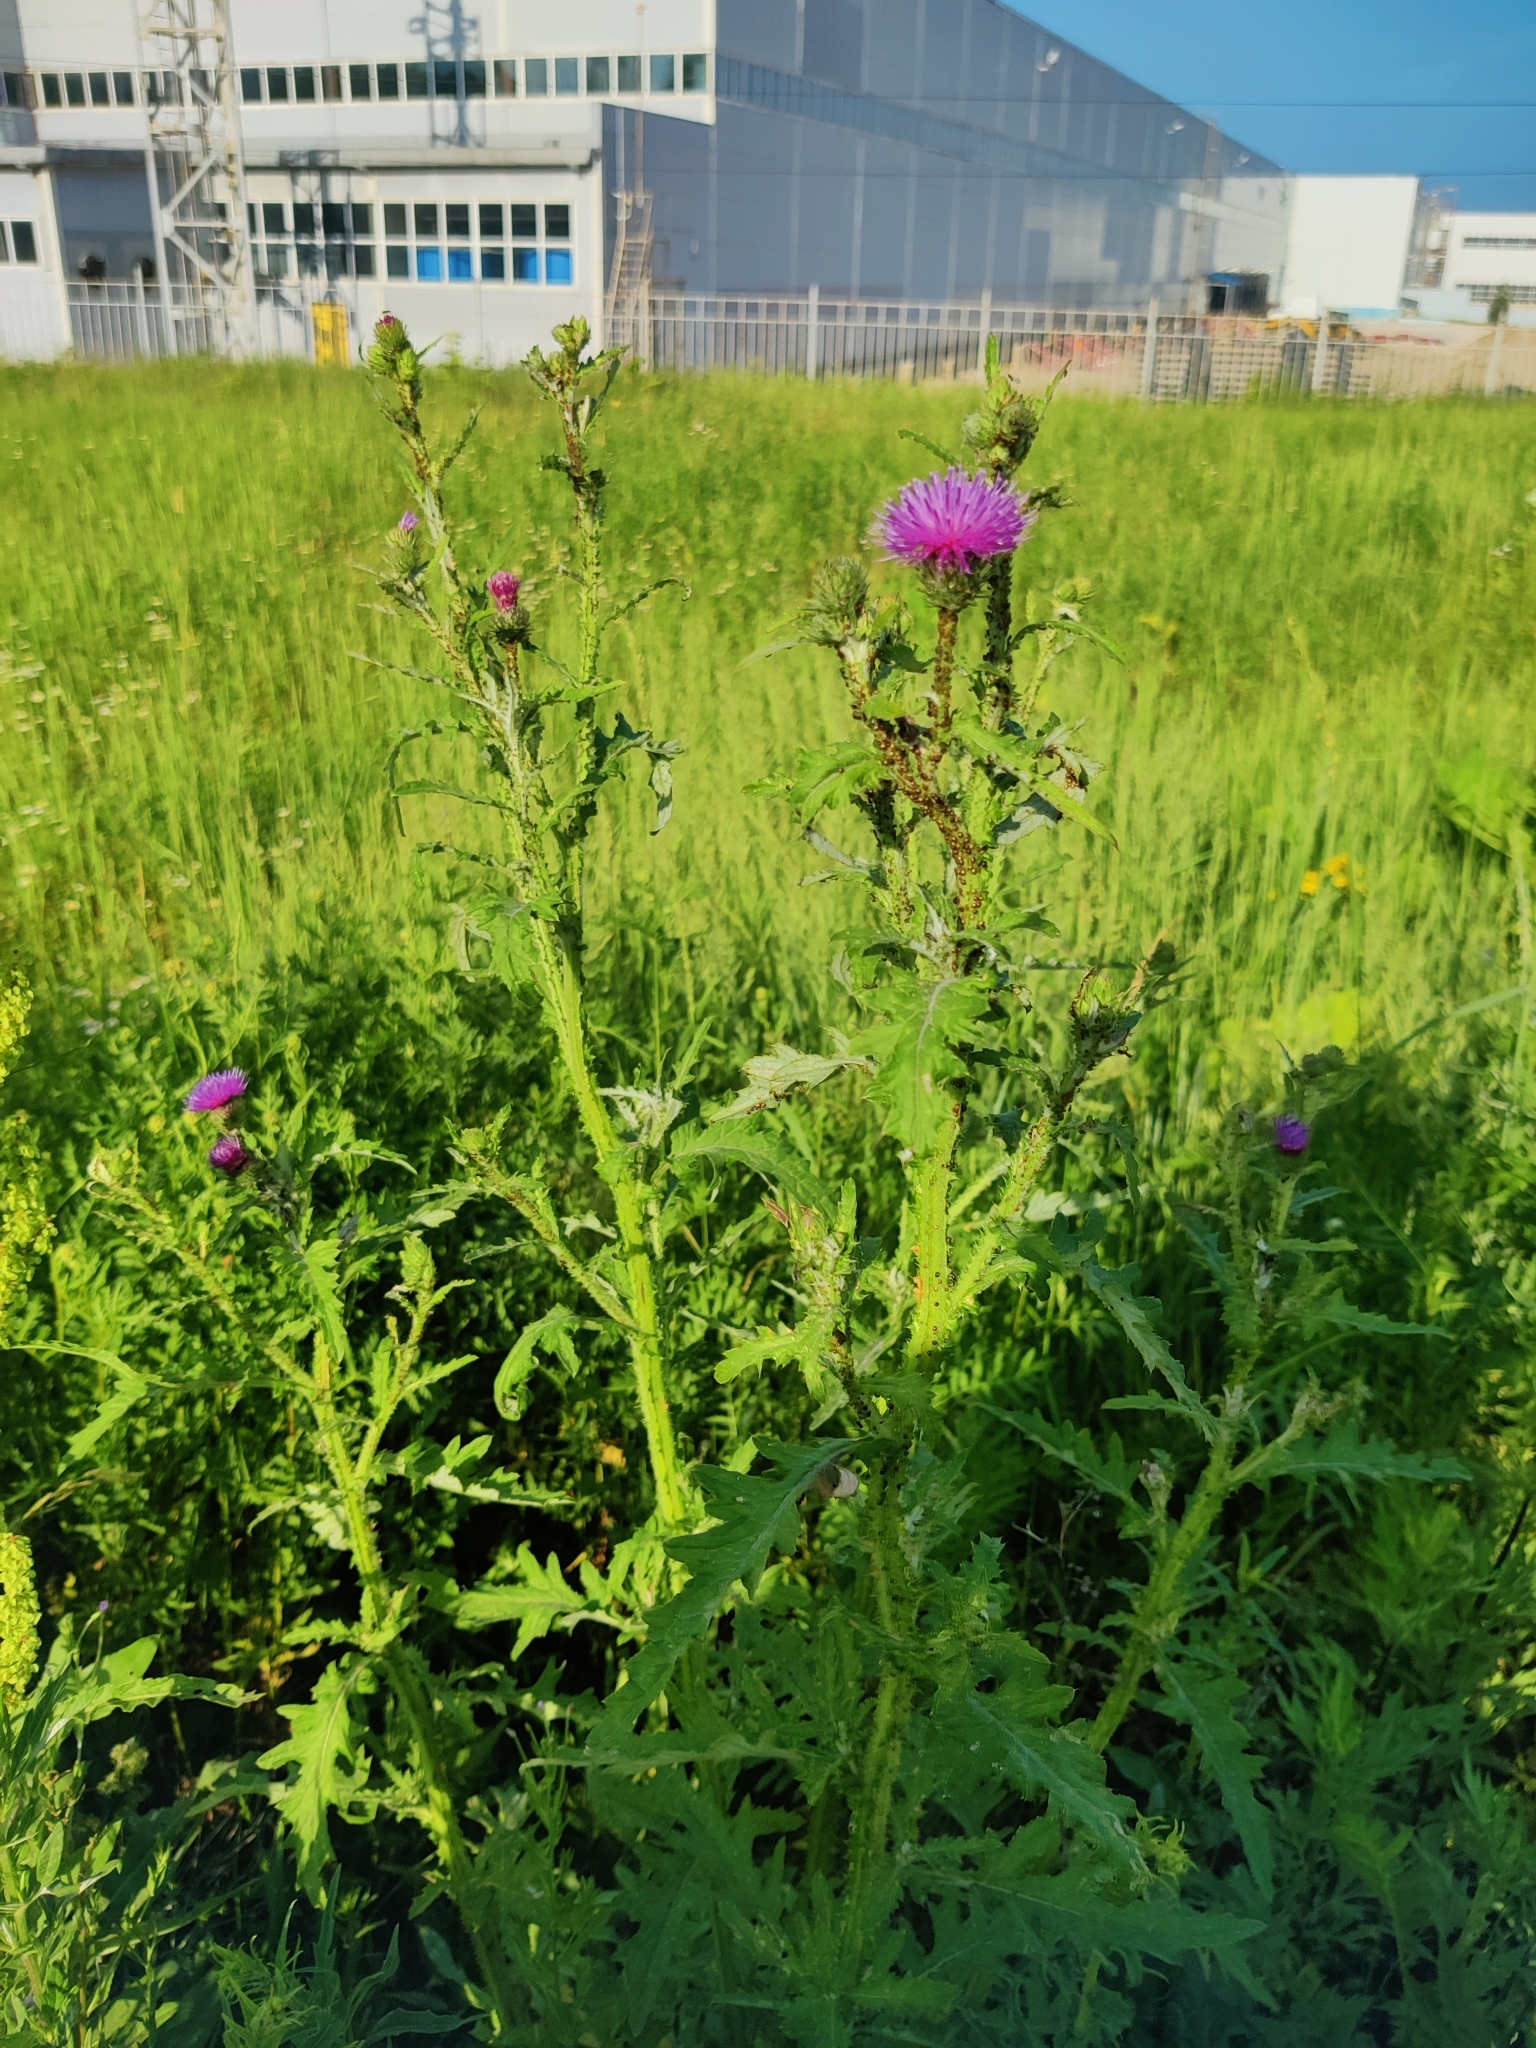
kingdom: Plantae
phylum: Tracheophyta
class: Magnoliopsida
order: Asterales
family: Asteraceae
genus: Carduus
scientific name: Carduus crispus
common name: Welted thistle
